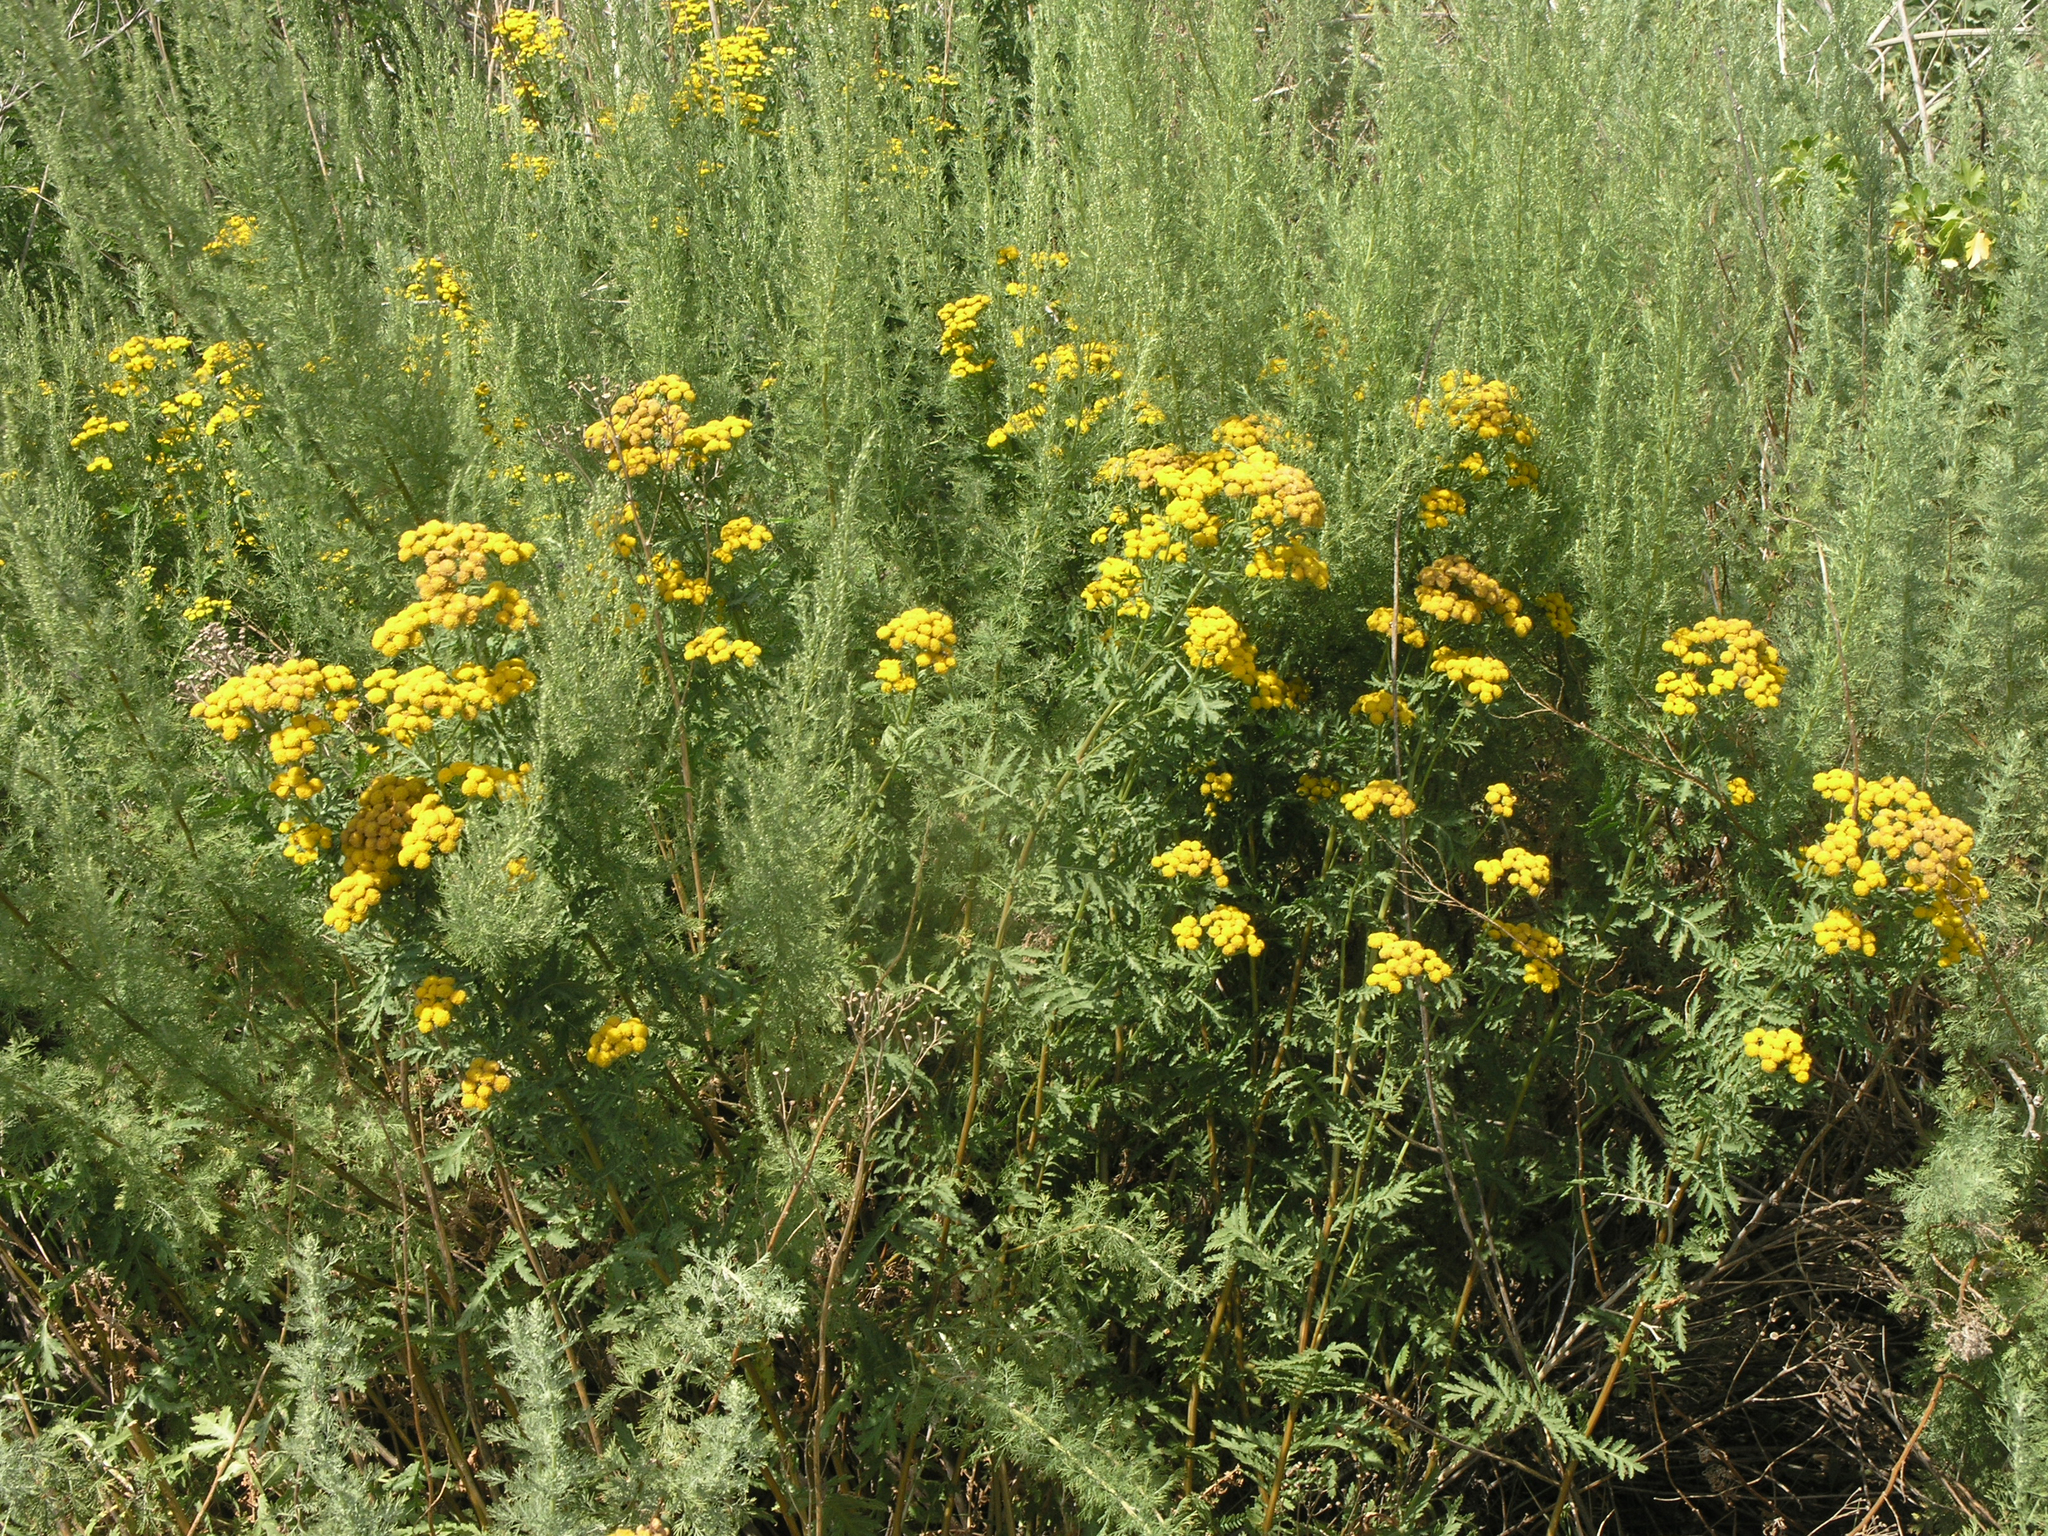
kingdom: Plantae
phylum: Tracheophyta
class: Magnoliopsida
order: Asterales
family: Asteraceae
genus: Tanacetum
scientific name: Tanacetum vulgare
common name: Common tansy
